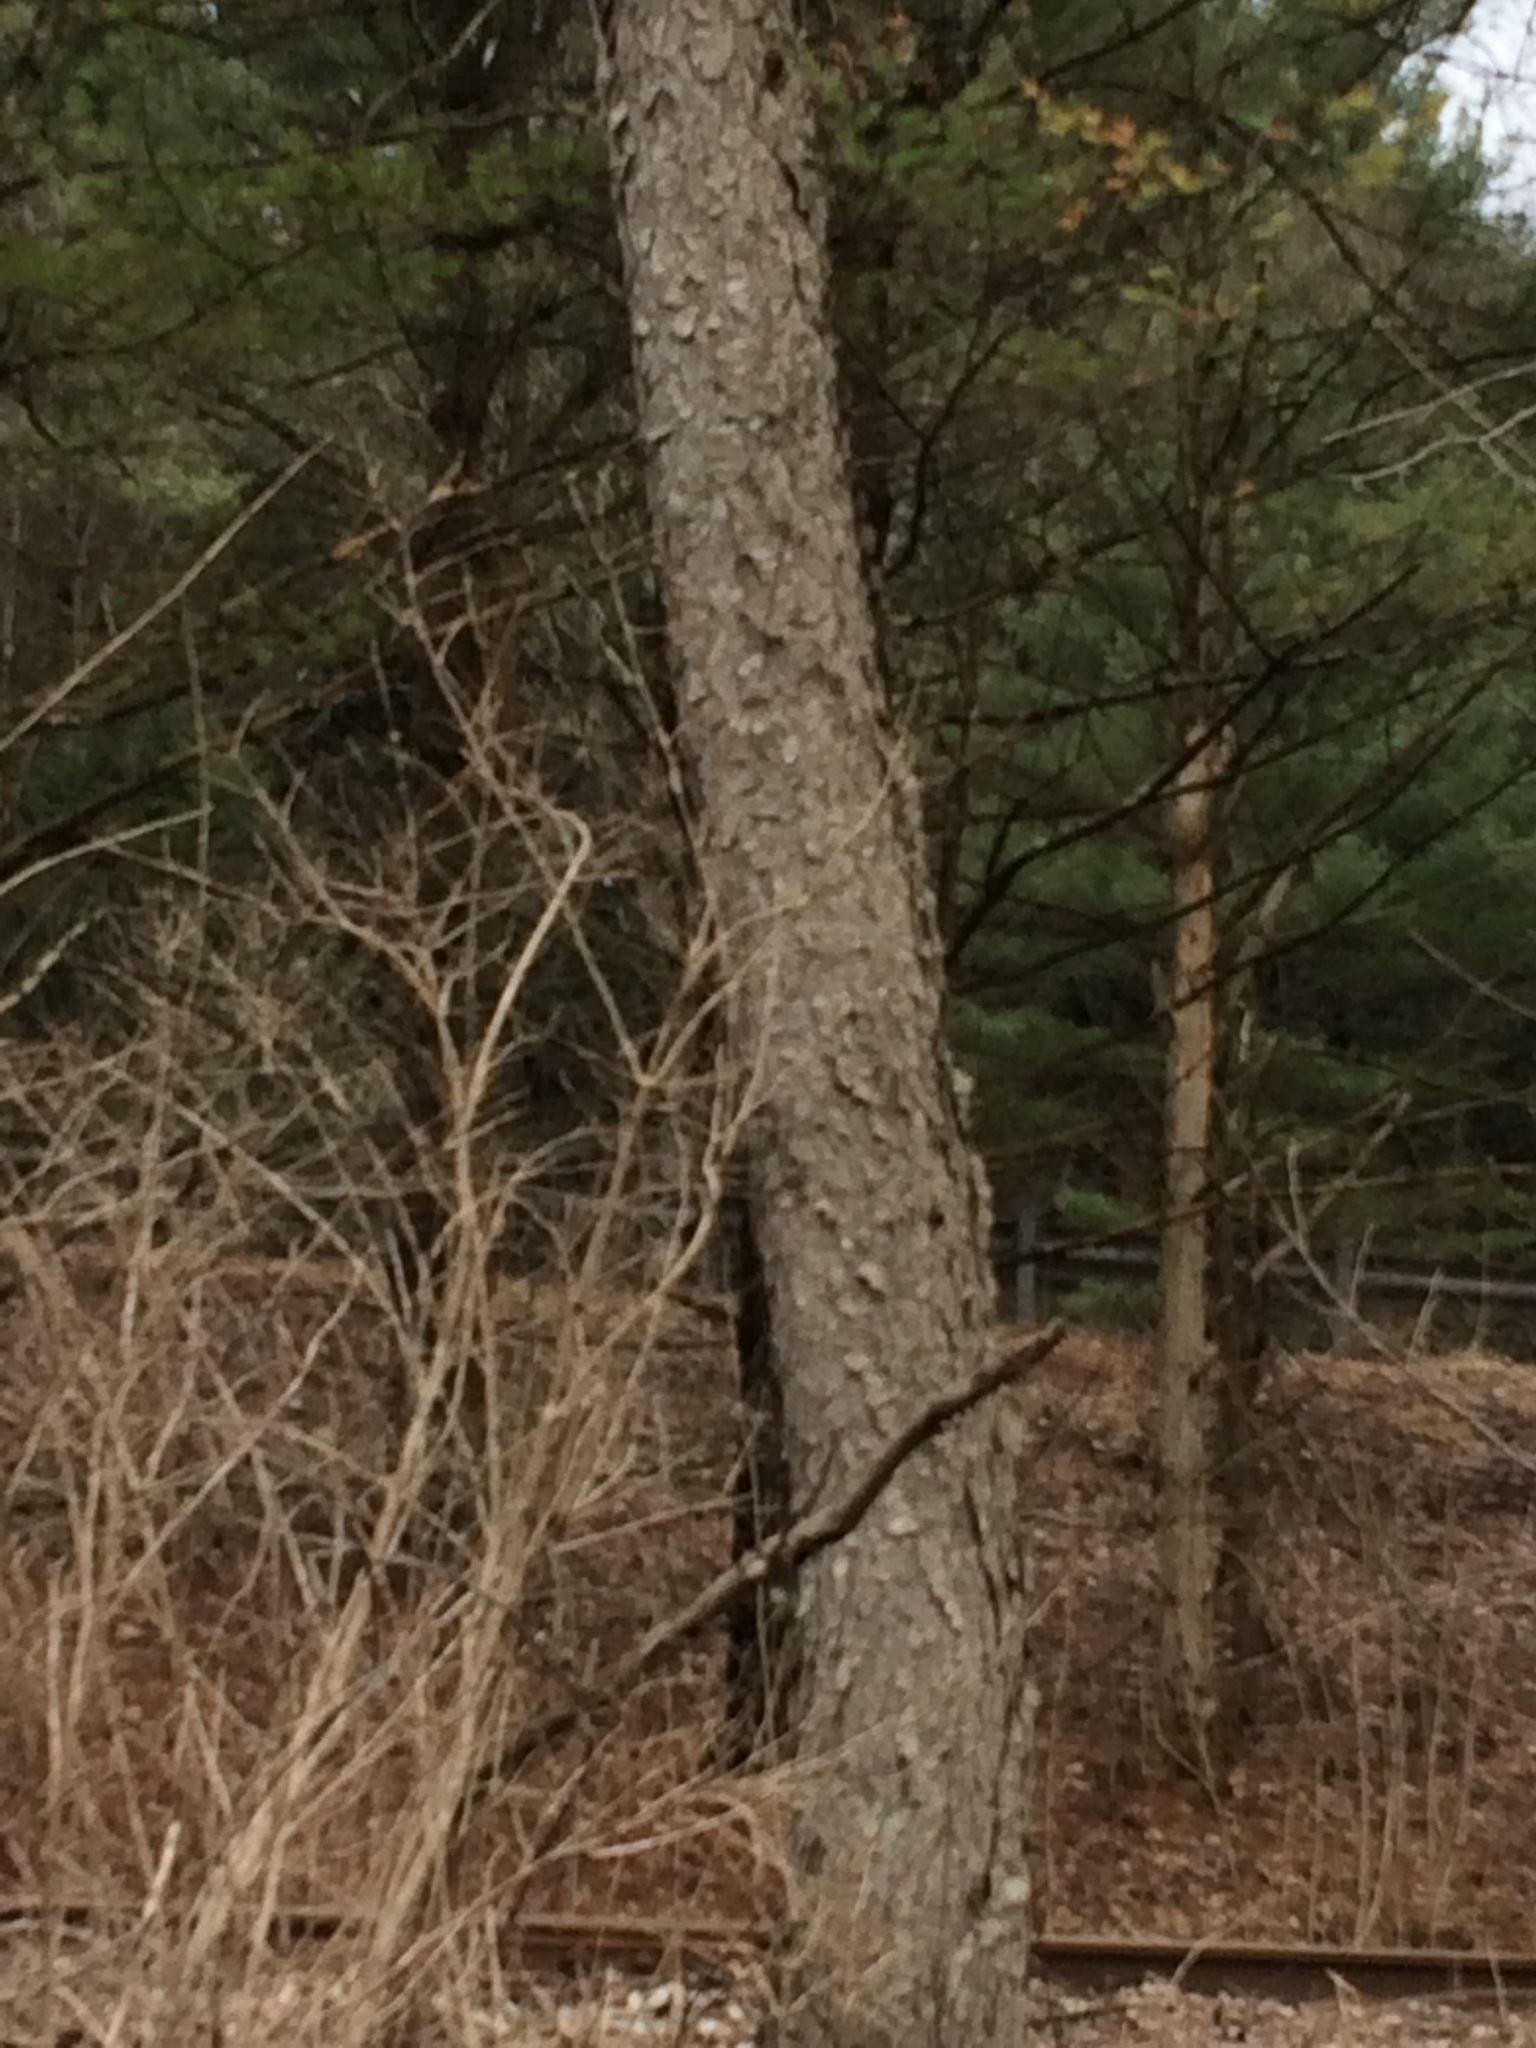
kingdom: Plantae
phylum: Tracheophyta
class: Magnoliopsida
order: Rosales
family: Rosaceae
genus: Prunus
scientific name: Prunus serotina
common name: Black cherry
